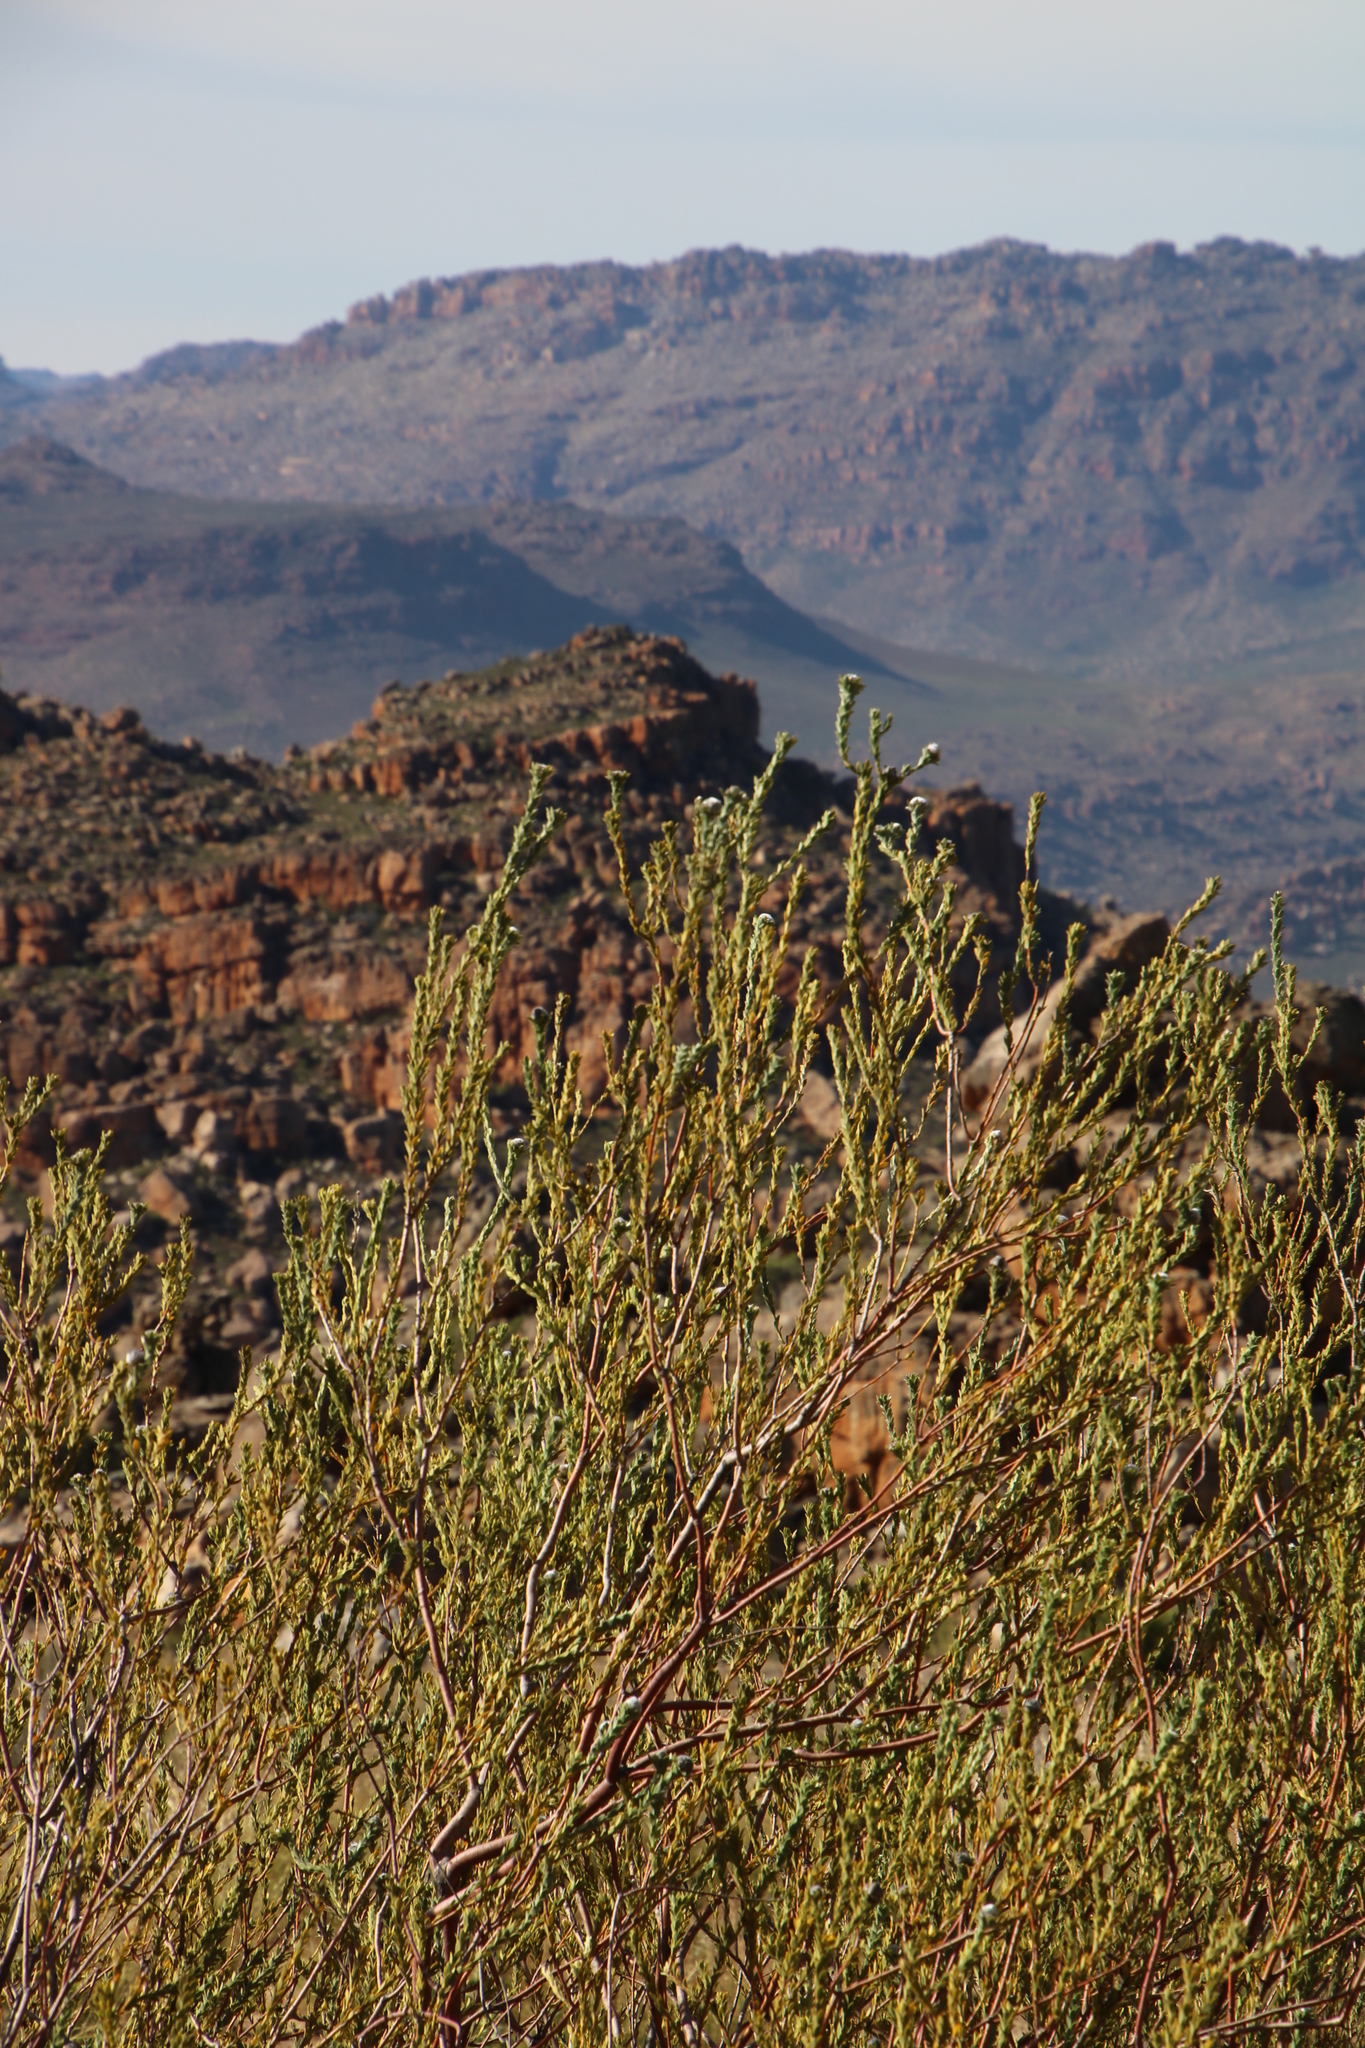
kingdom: Plantae
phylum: Tracheophyta
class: Magnoliopsida
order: Proteales
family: Proteaceae
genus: Leucadendron
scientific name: Leucadendron dubium
